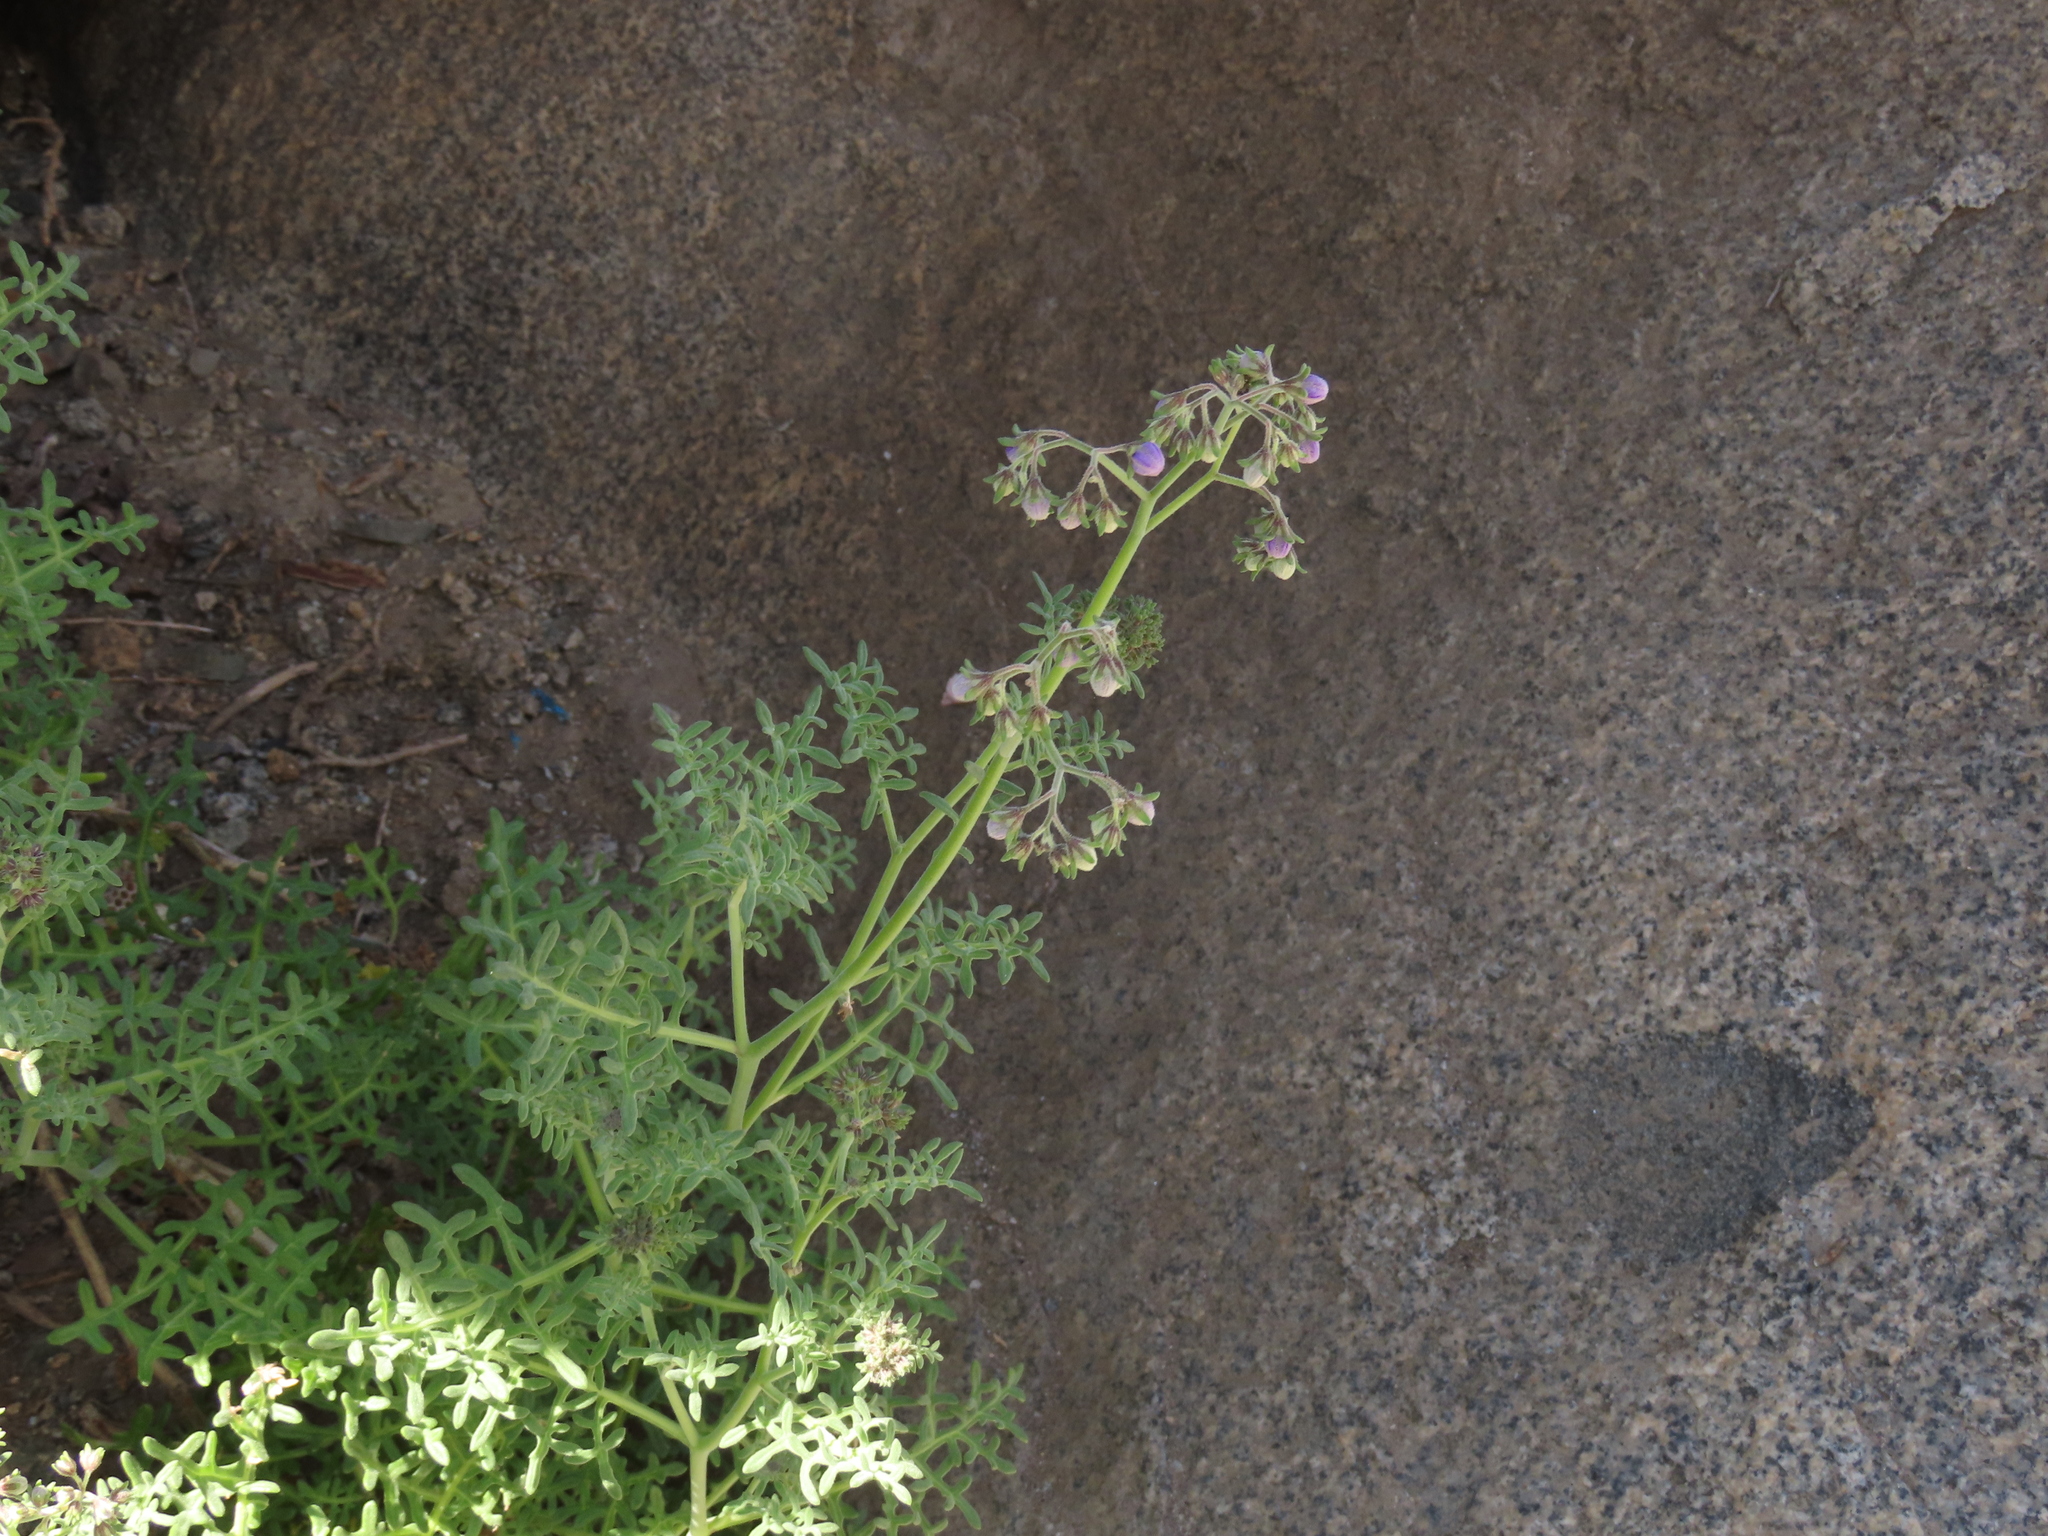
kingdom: Plantae
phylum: Tracheophyta
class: Magnoliopsida
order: Solanales
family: Solanaceae
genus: Solanum
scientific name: Solanum remyanum
